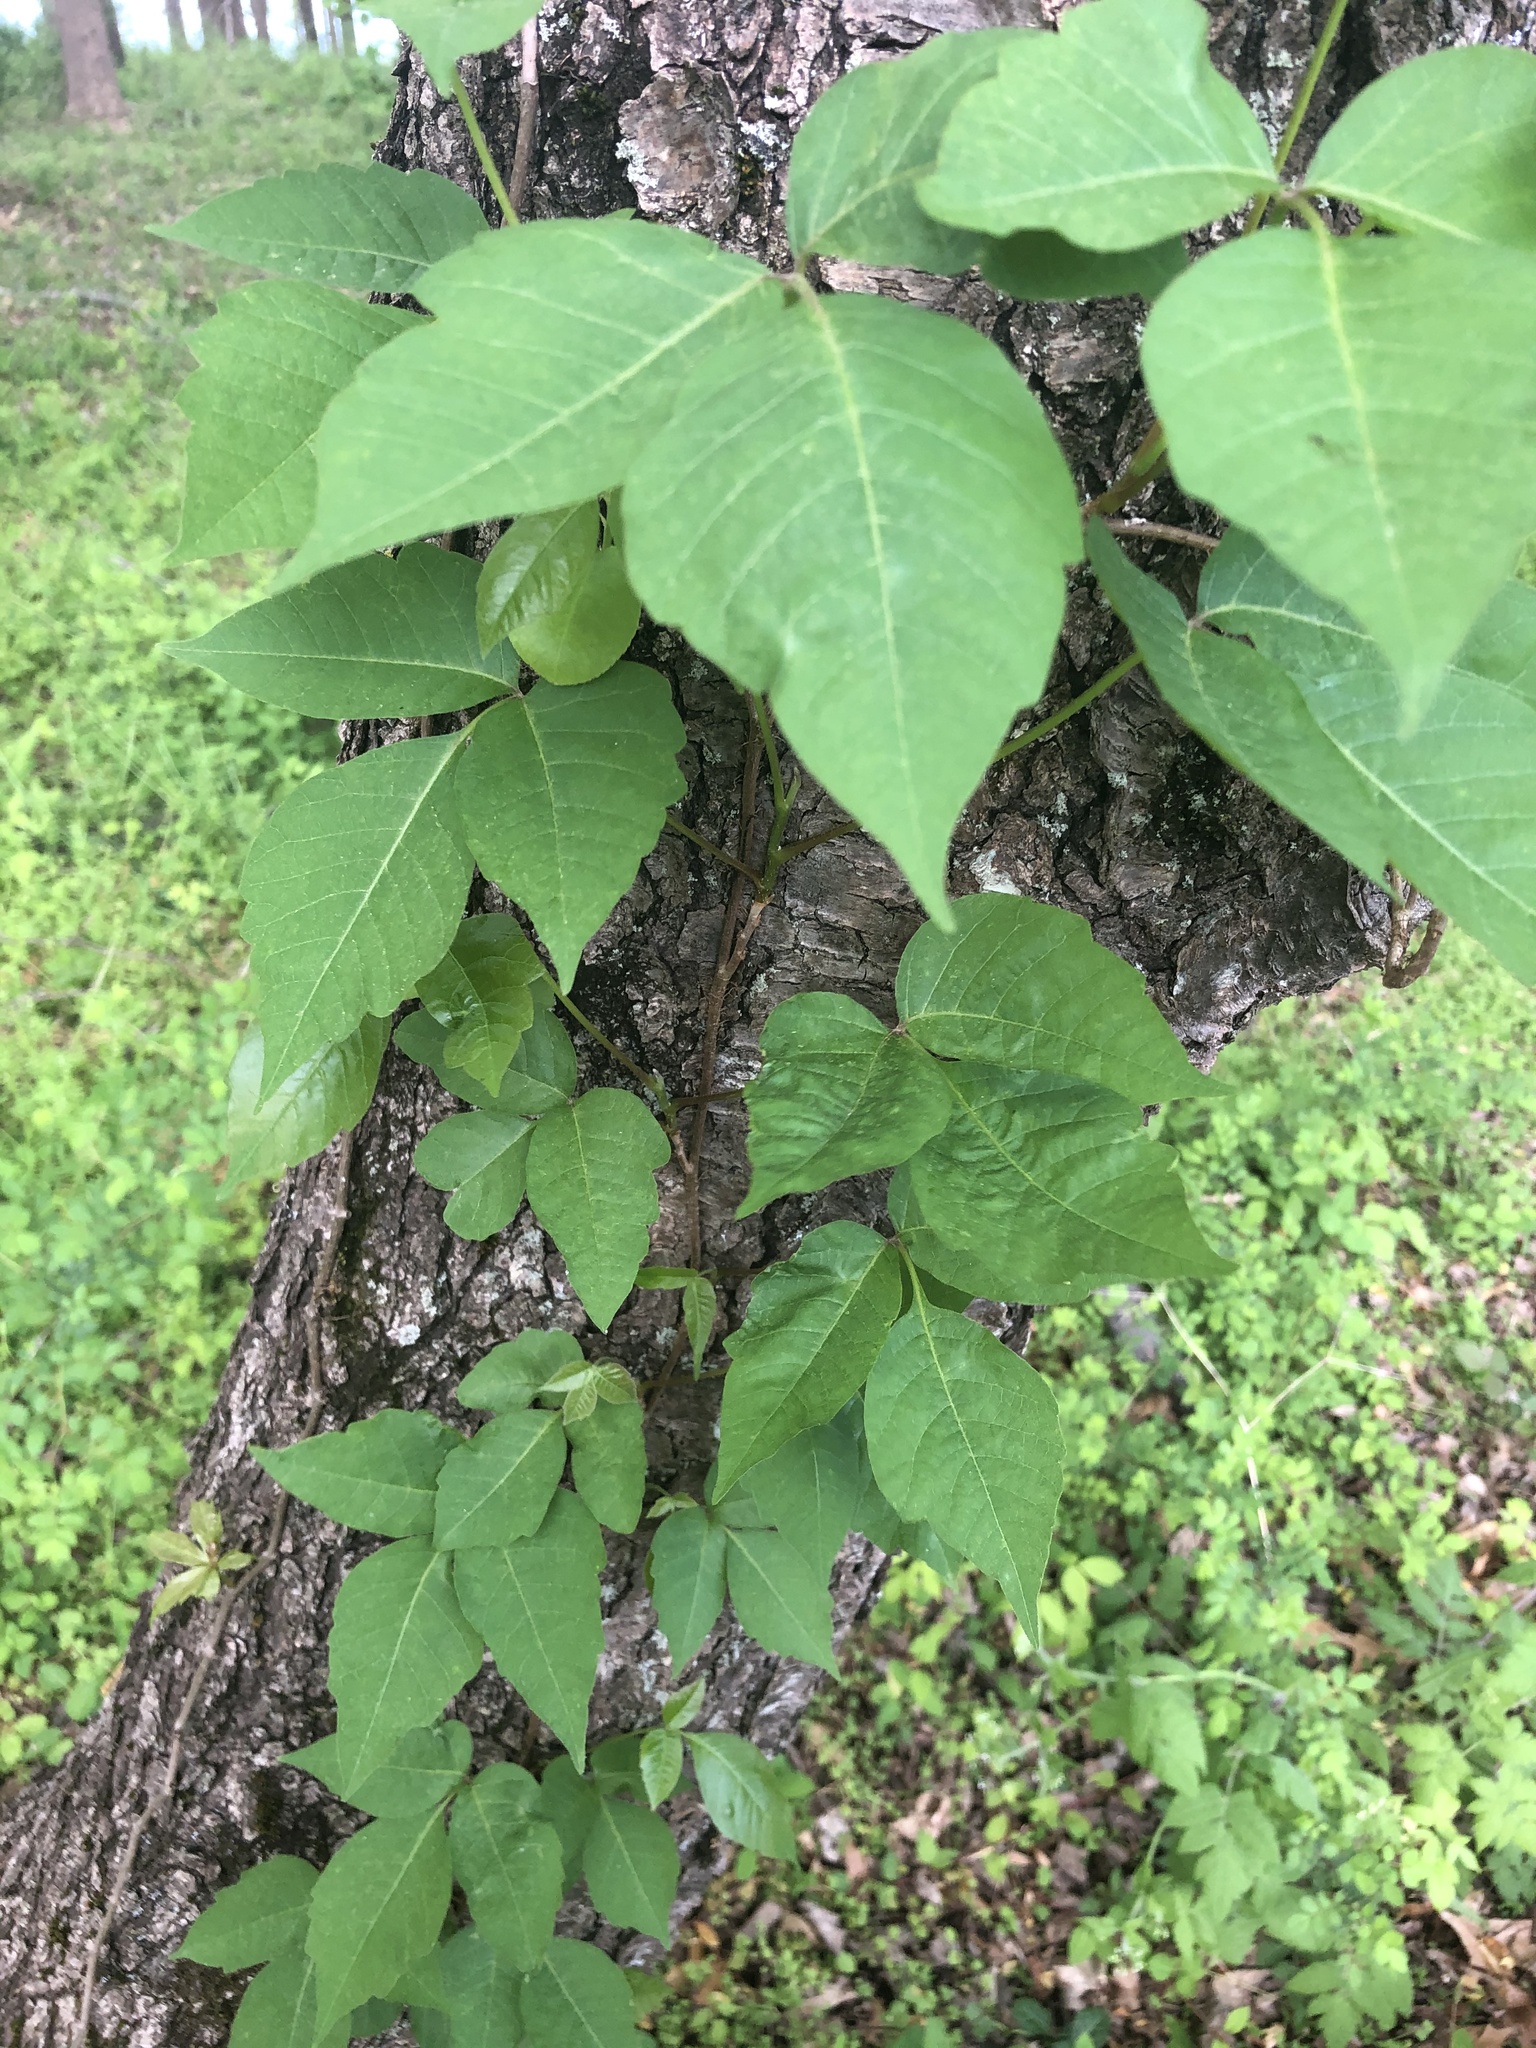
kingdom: Plantae
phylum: Tracheophyta
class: Magnoliopsida
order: Sapindales
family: Anacardiaceae
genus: Toxicodendron
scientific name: Toxicodendron radicans
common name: Poison ivy
